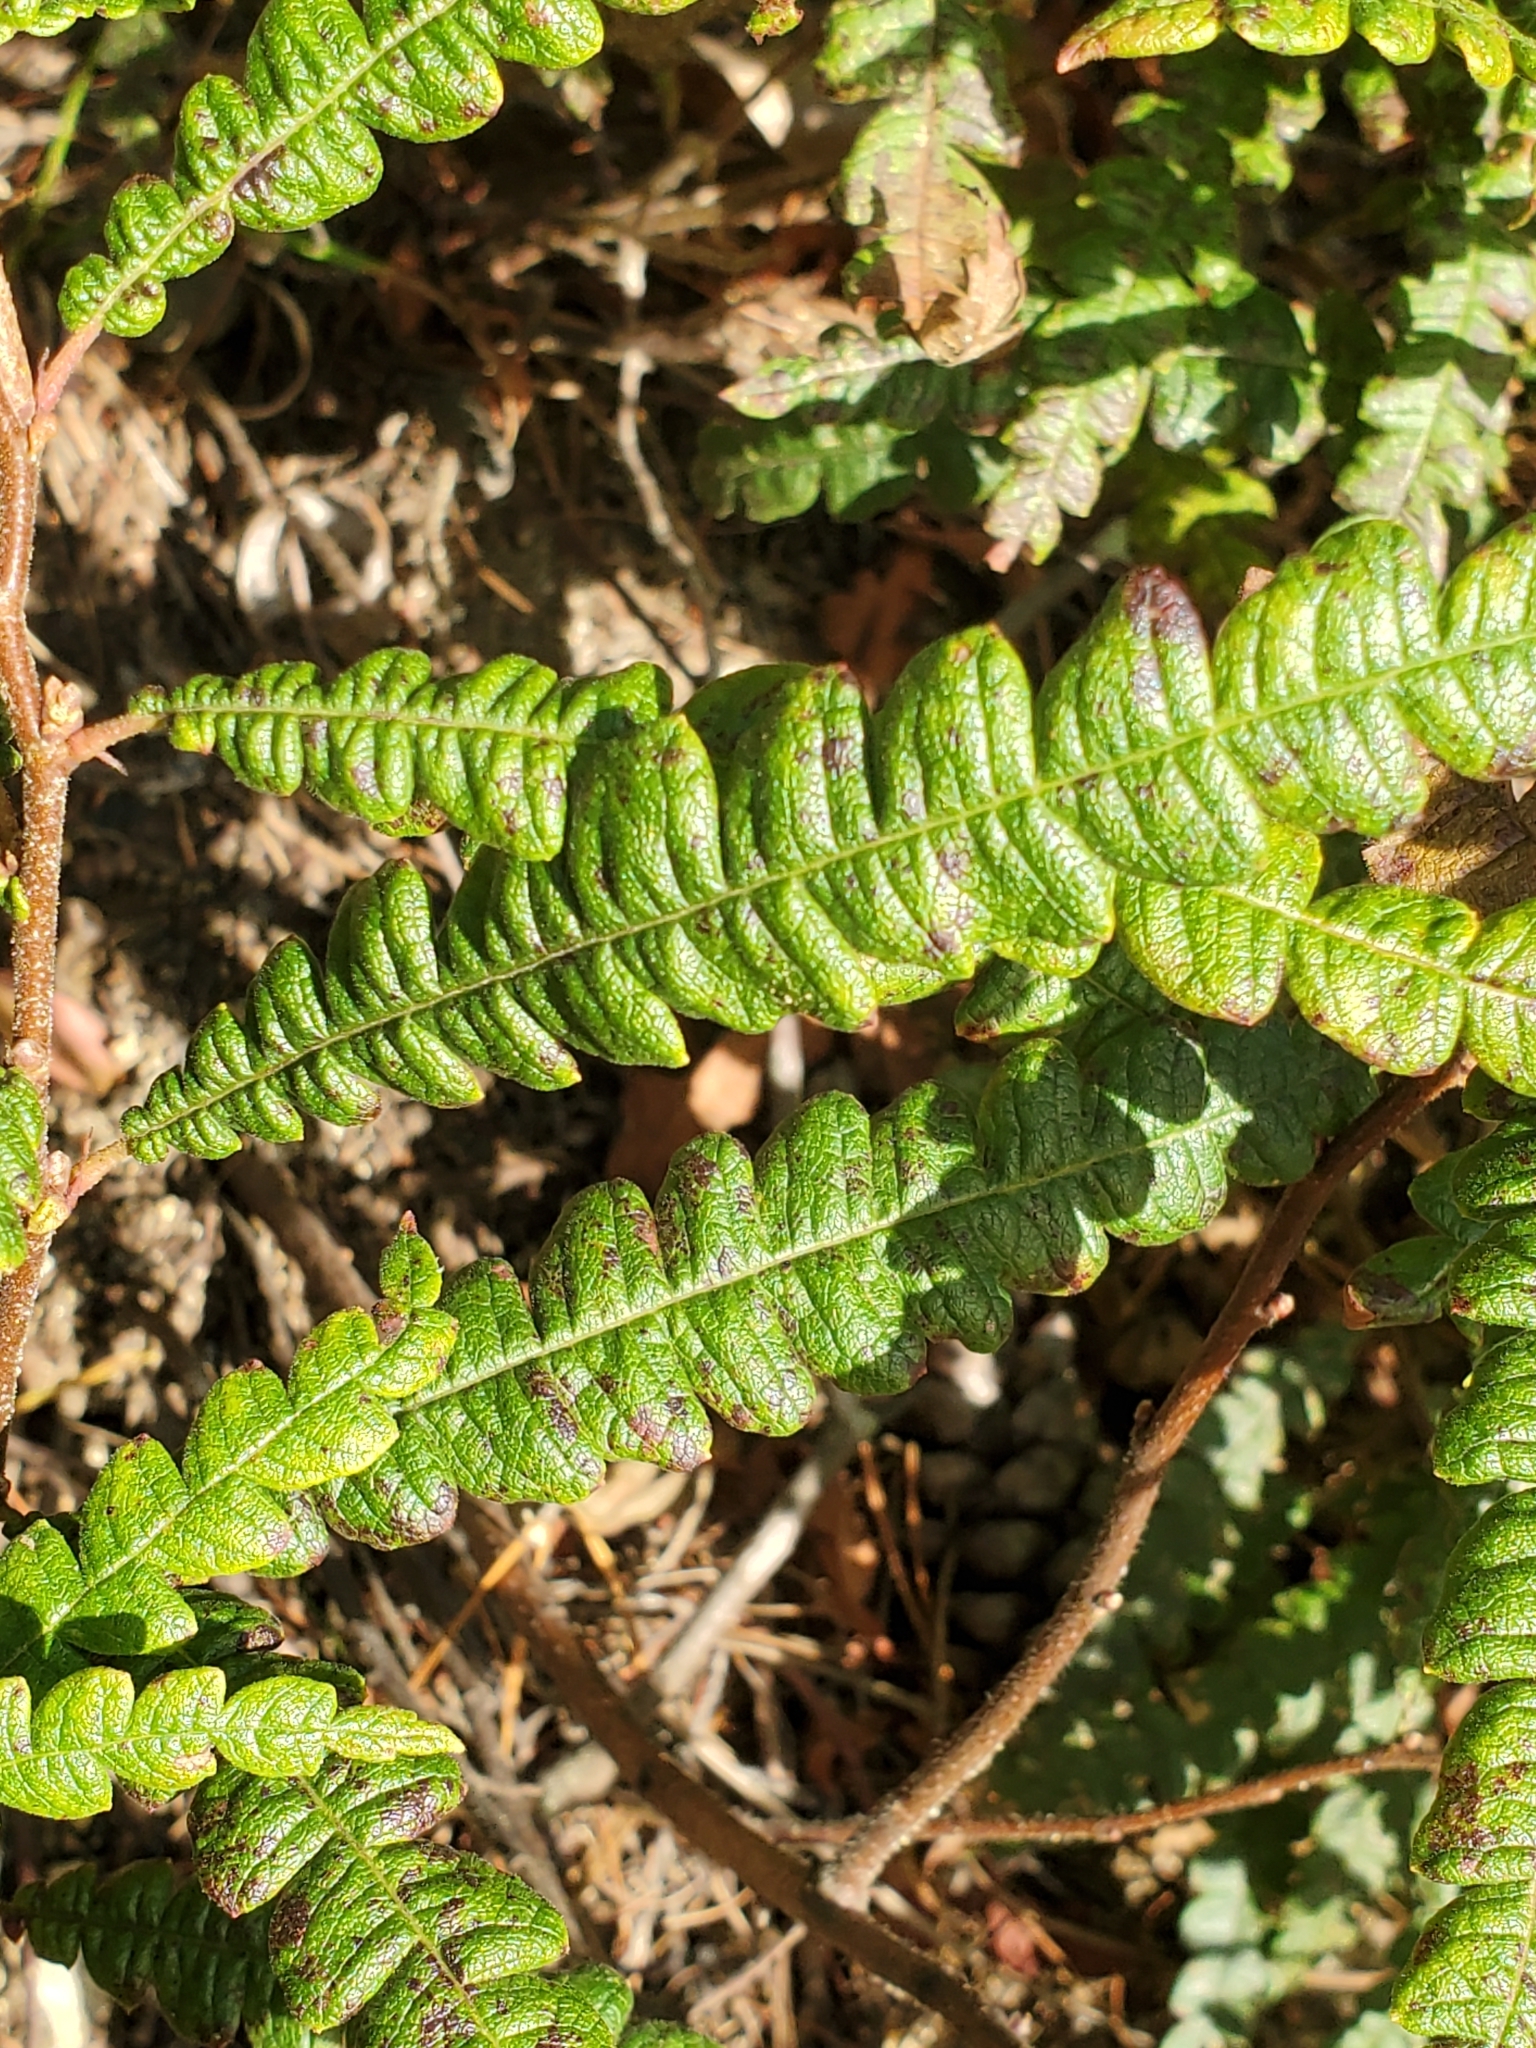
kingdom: Plantae
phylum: Tracheophyta
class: Magnoliopsida
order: Fagales
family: Myricaceae
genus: Comptonia
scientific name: Comptonia peregrina
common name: Sweet-fern
